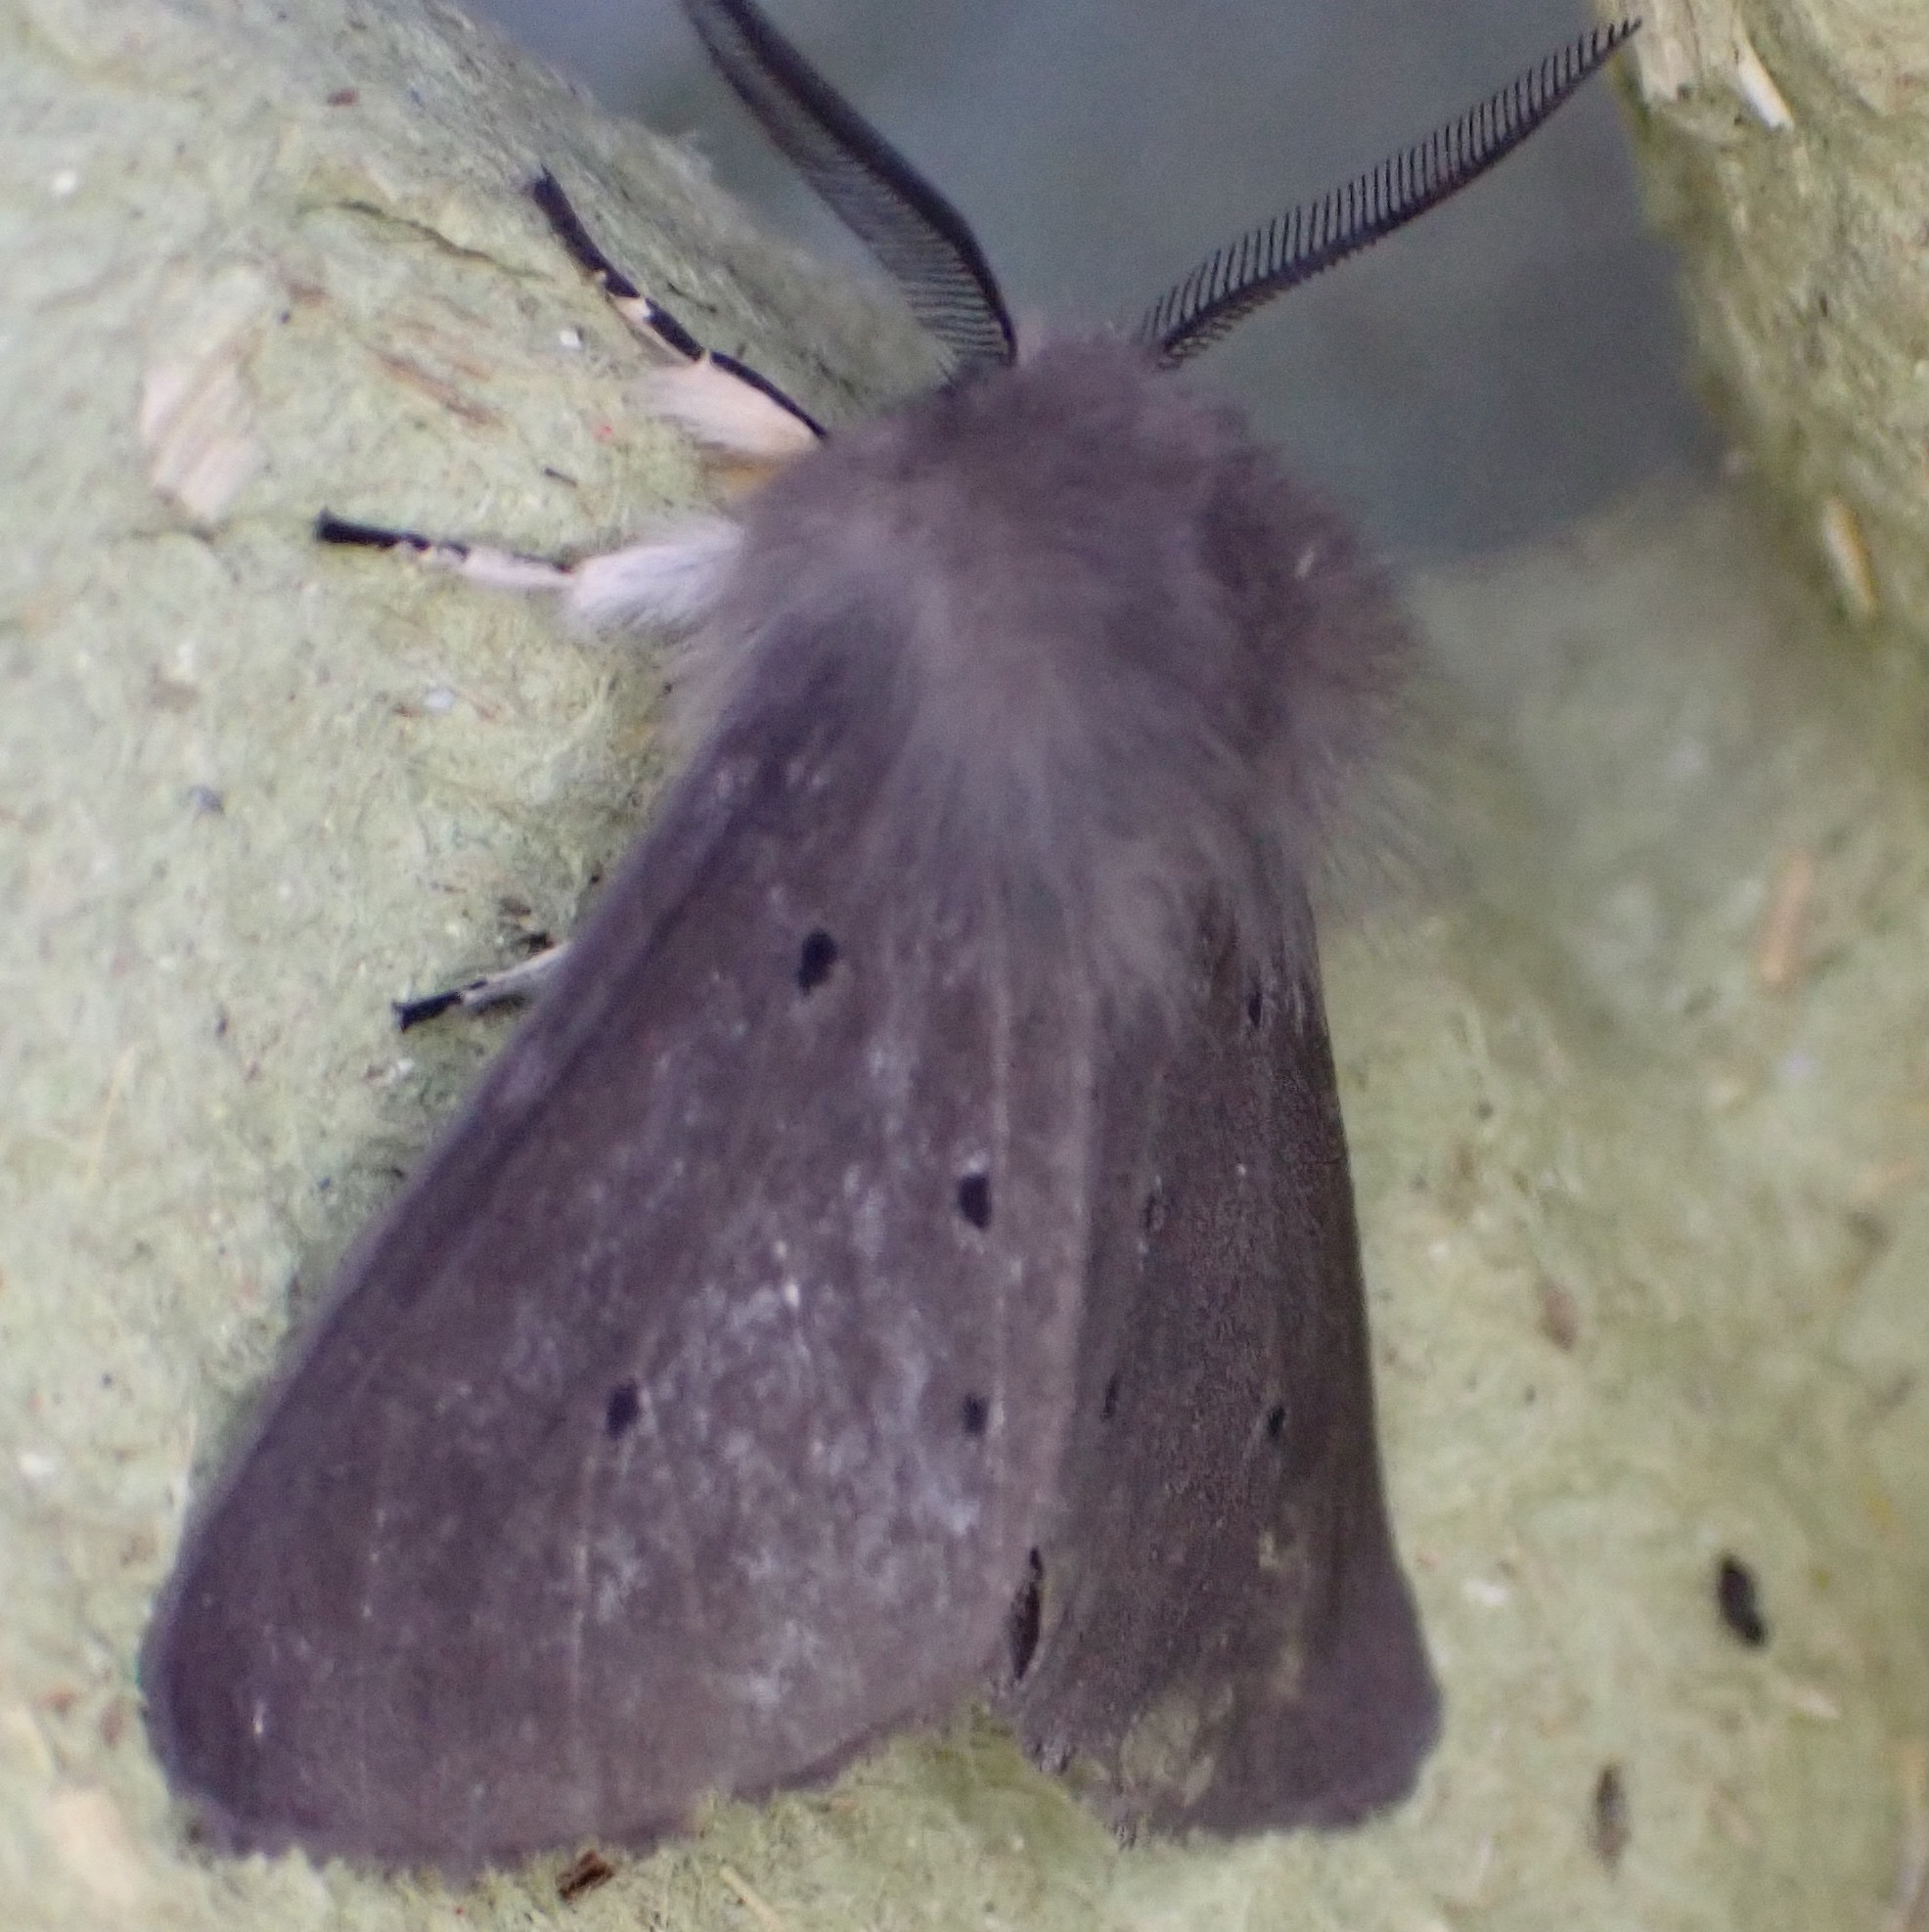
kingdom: Animalia
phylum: Arthropoda
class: Insecta
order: Lepidoptera
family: Erebidae
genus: Diaphora
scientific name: Diaphora mendica
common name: Muslin moth
